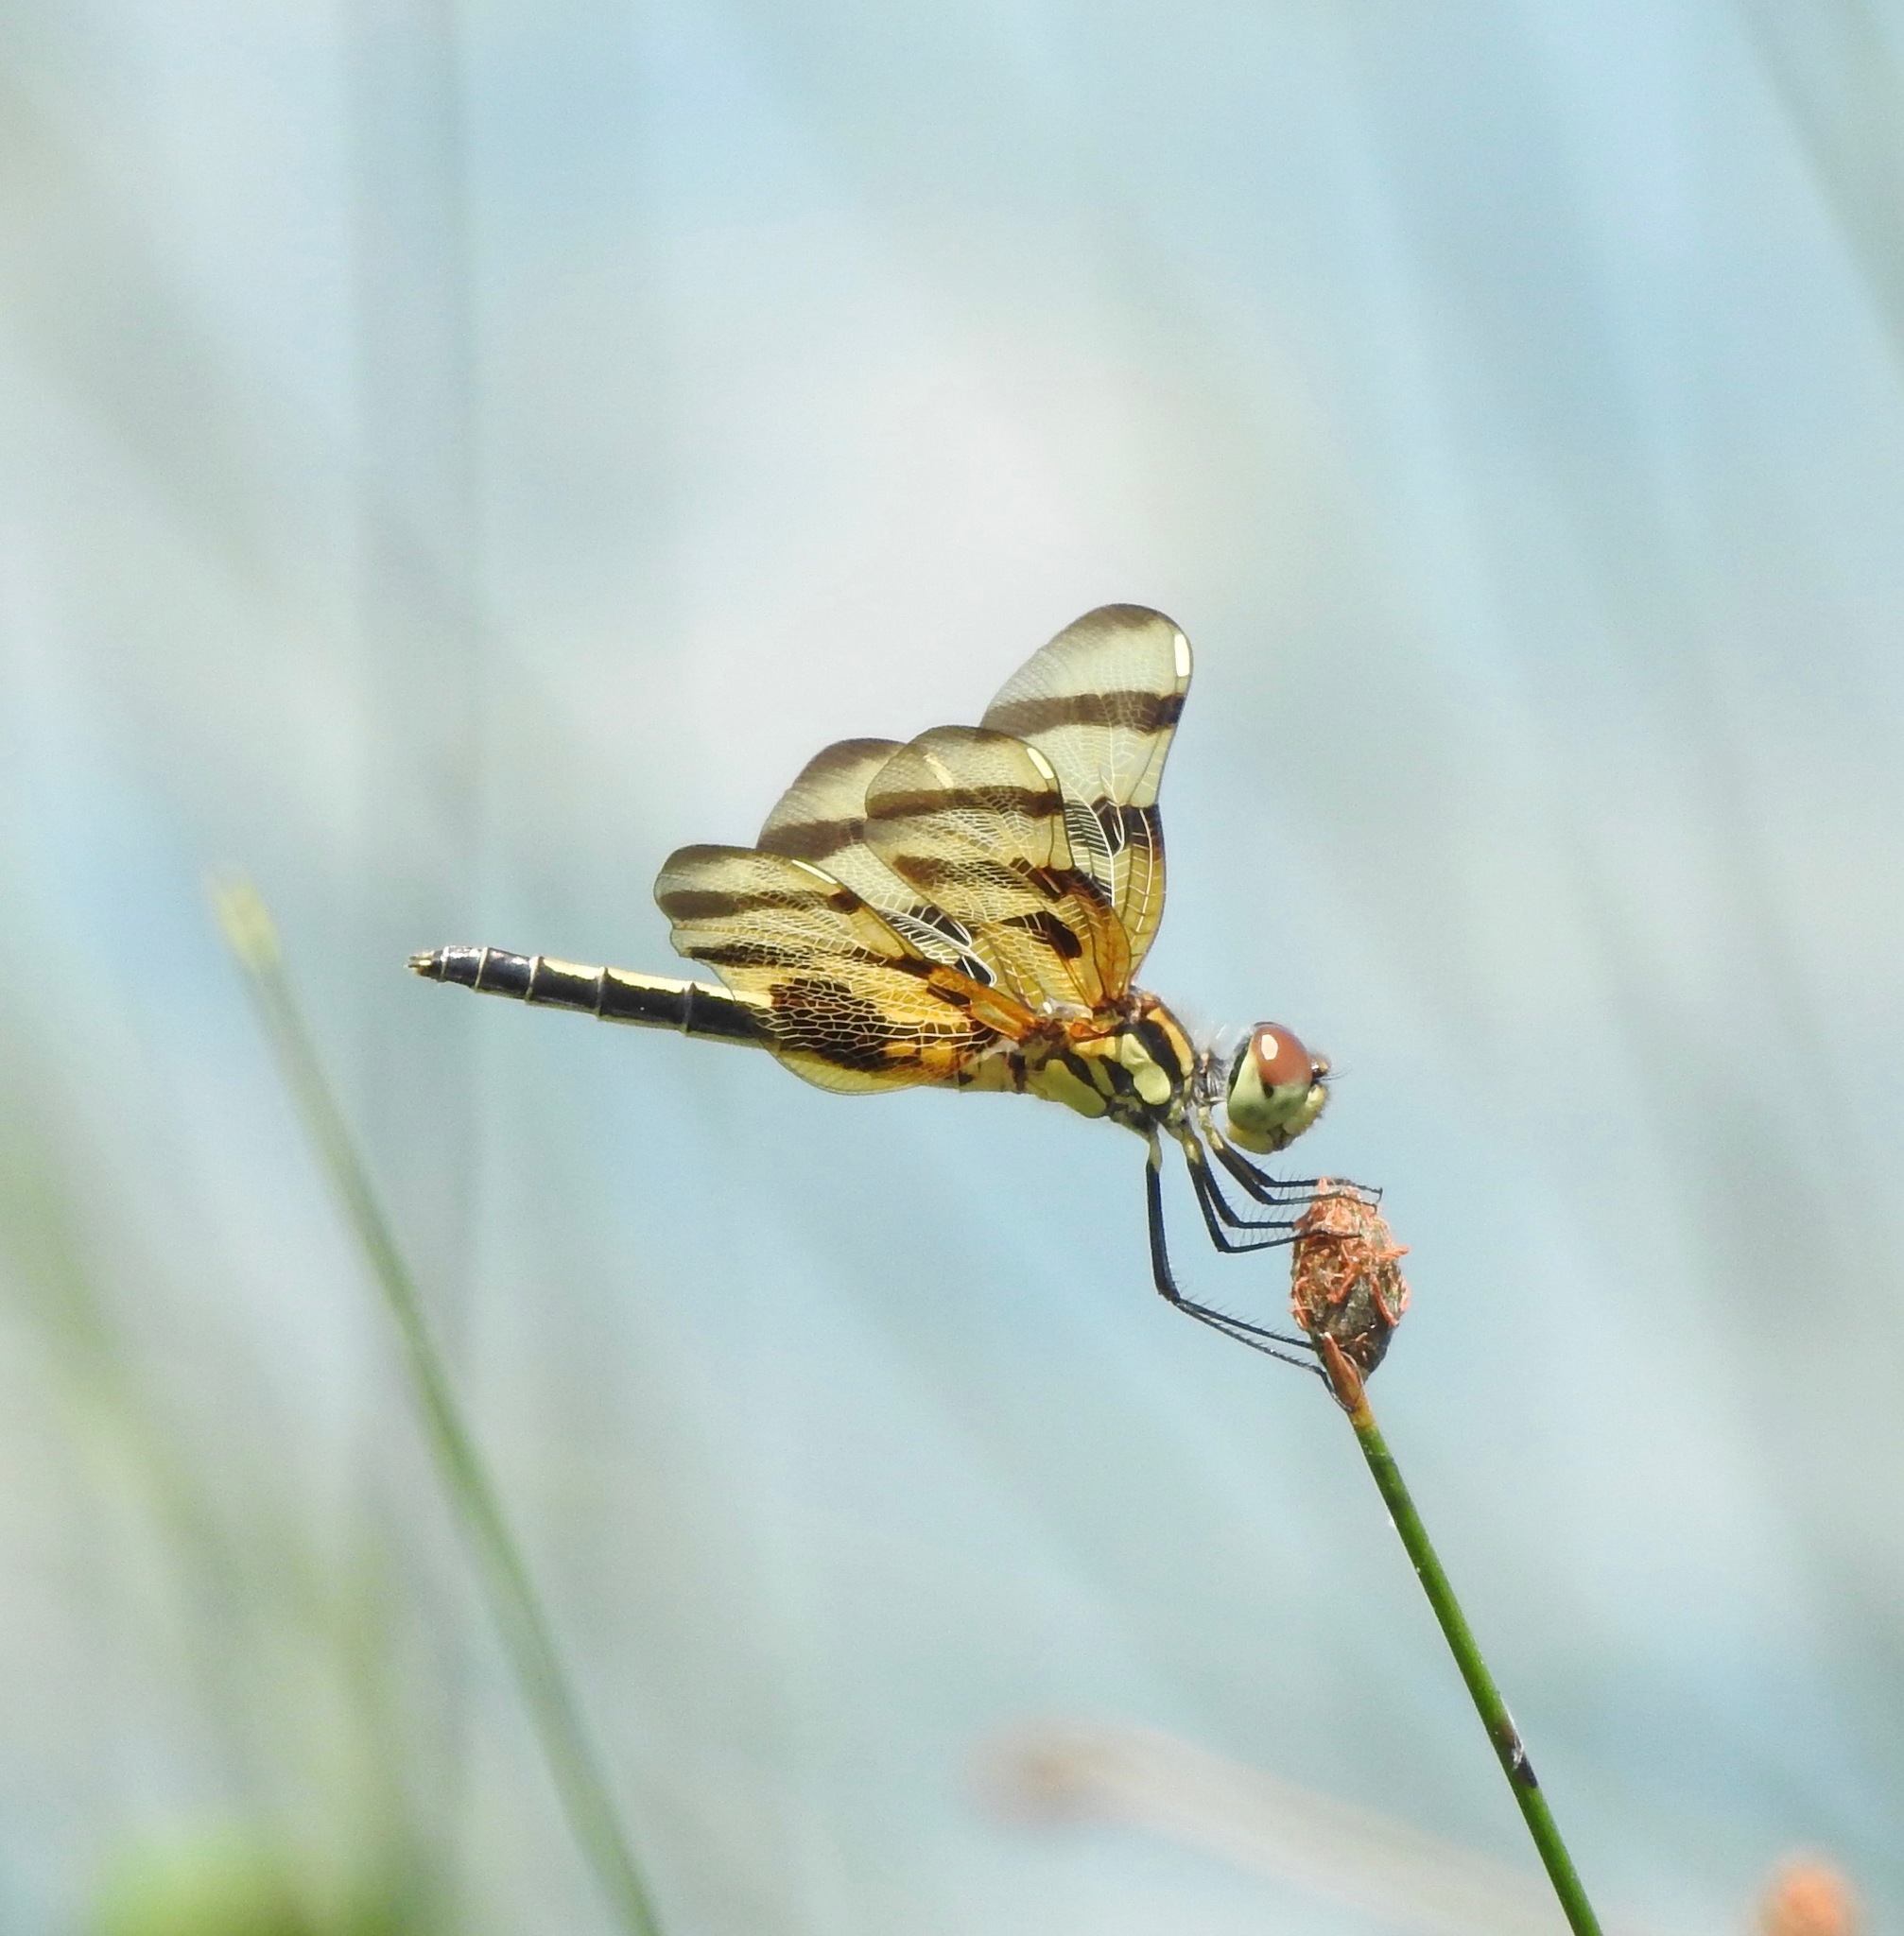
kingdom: Animalia
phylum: Arthropoda
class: Insecta
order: Odonata
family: Libellulidae
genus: Celithemis
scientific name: Celithemis eponina
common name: Halloween pennant
